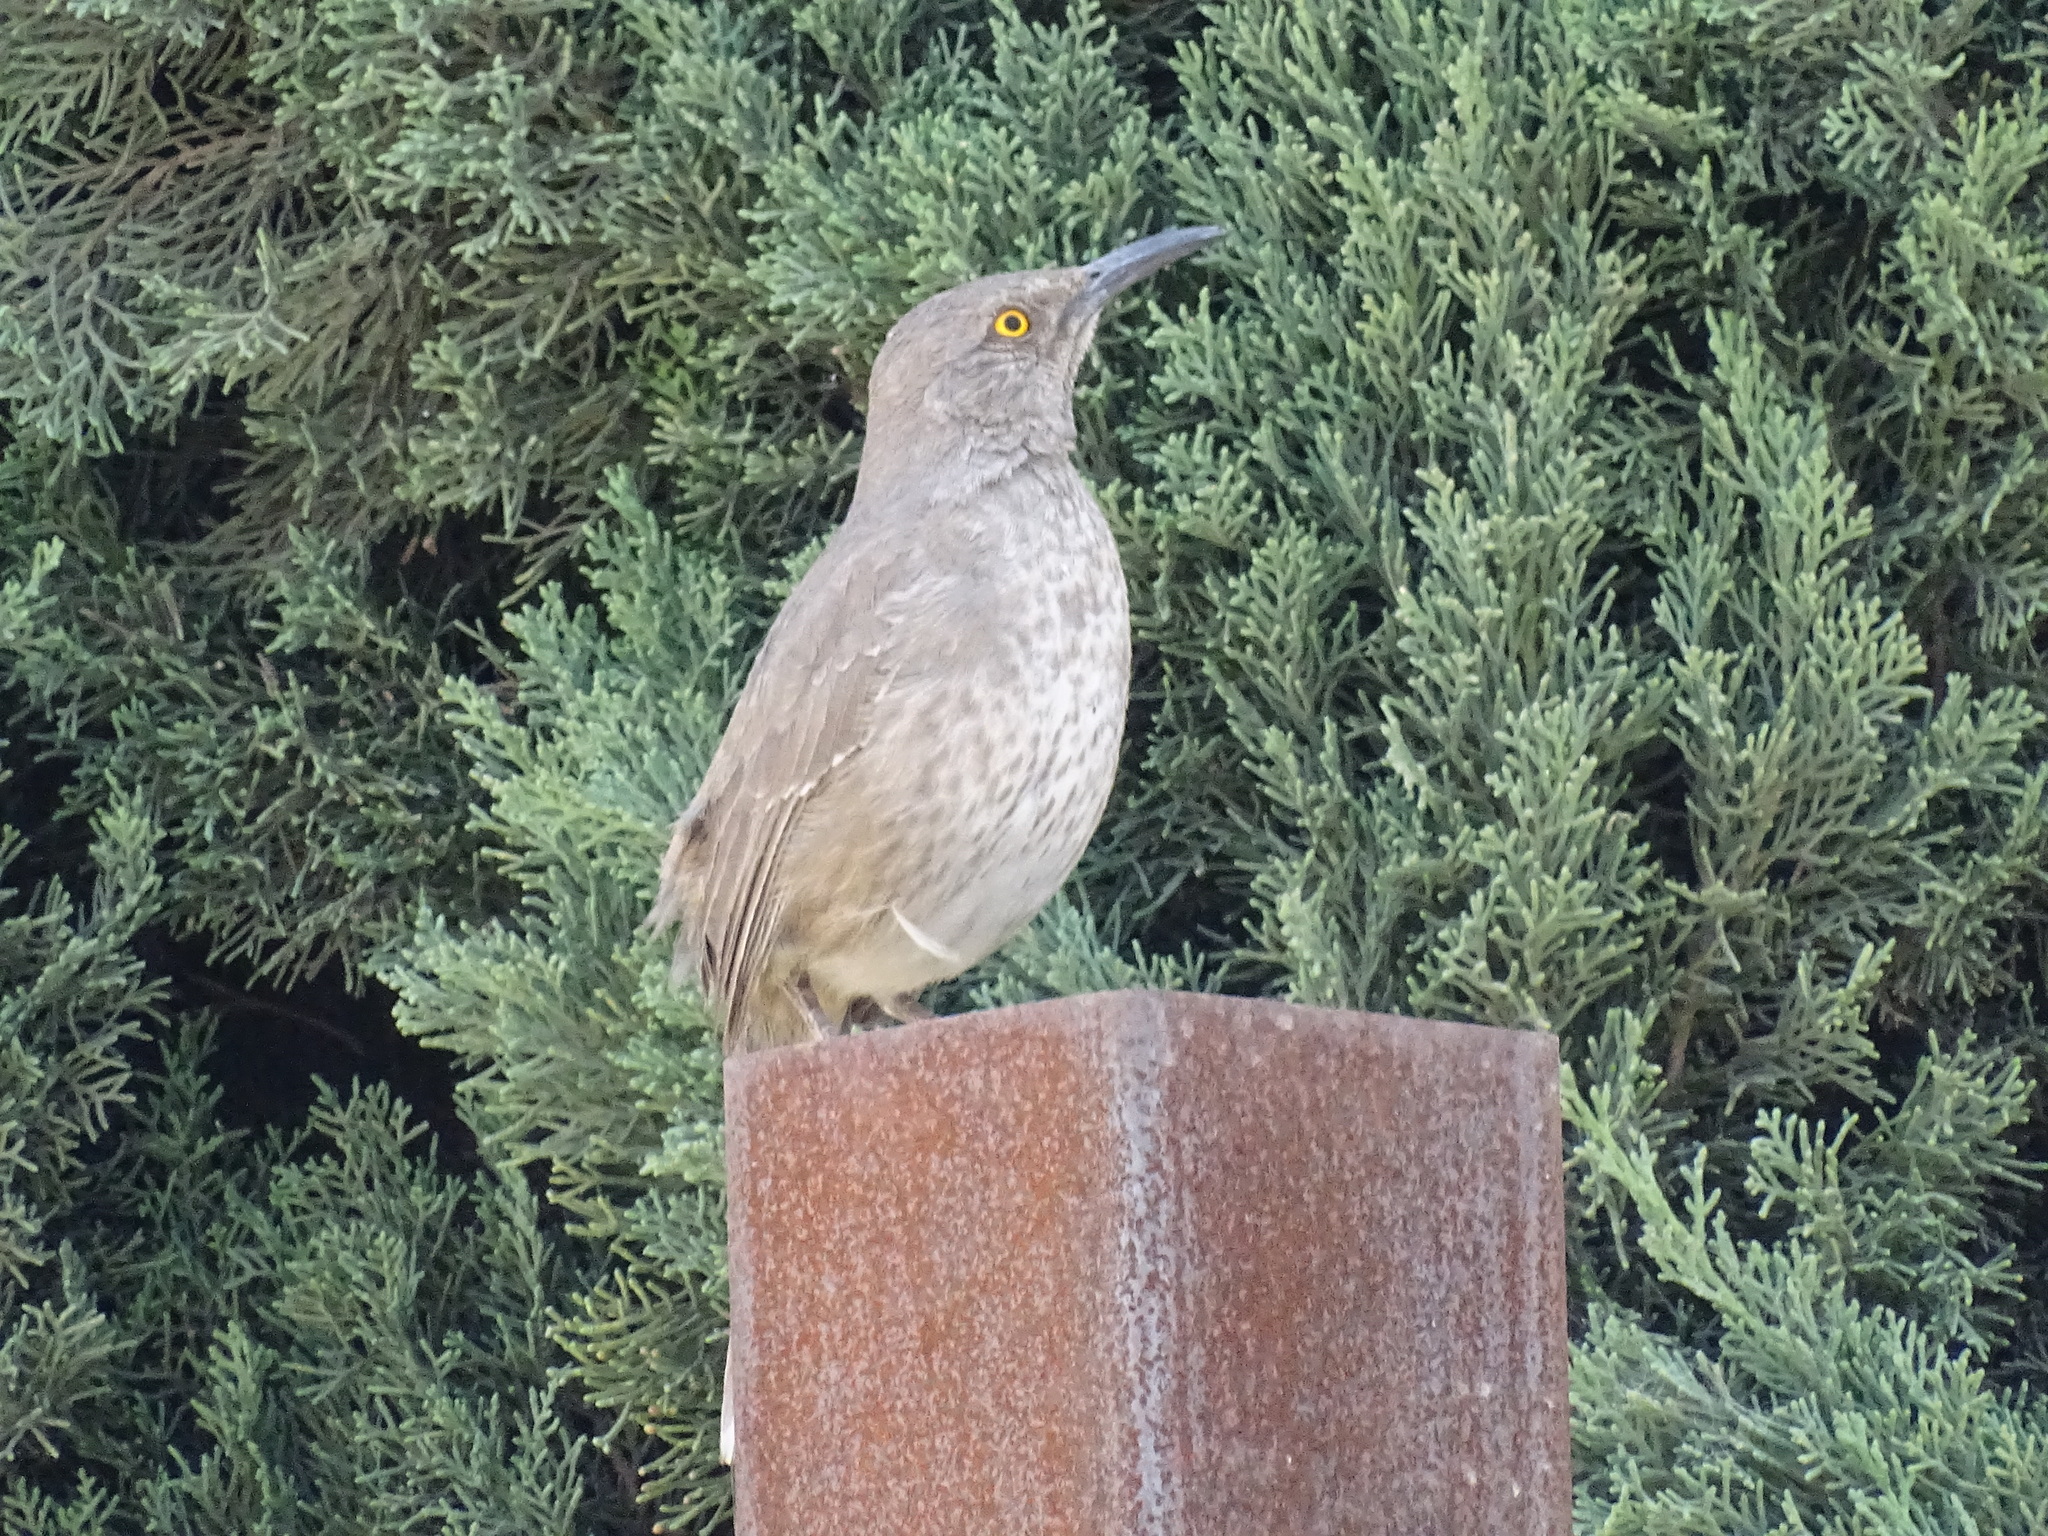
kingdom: Animalia
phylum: Chordata
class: Aves
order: Passeriformes
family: Mimidae
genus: Toxostoma
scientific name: Toxostoma curvirostre
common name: Curve-billed thrasher
